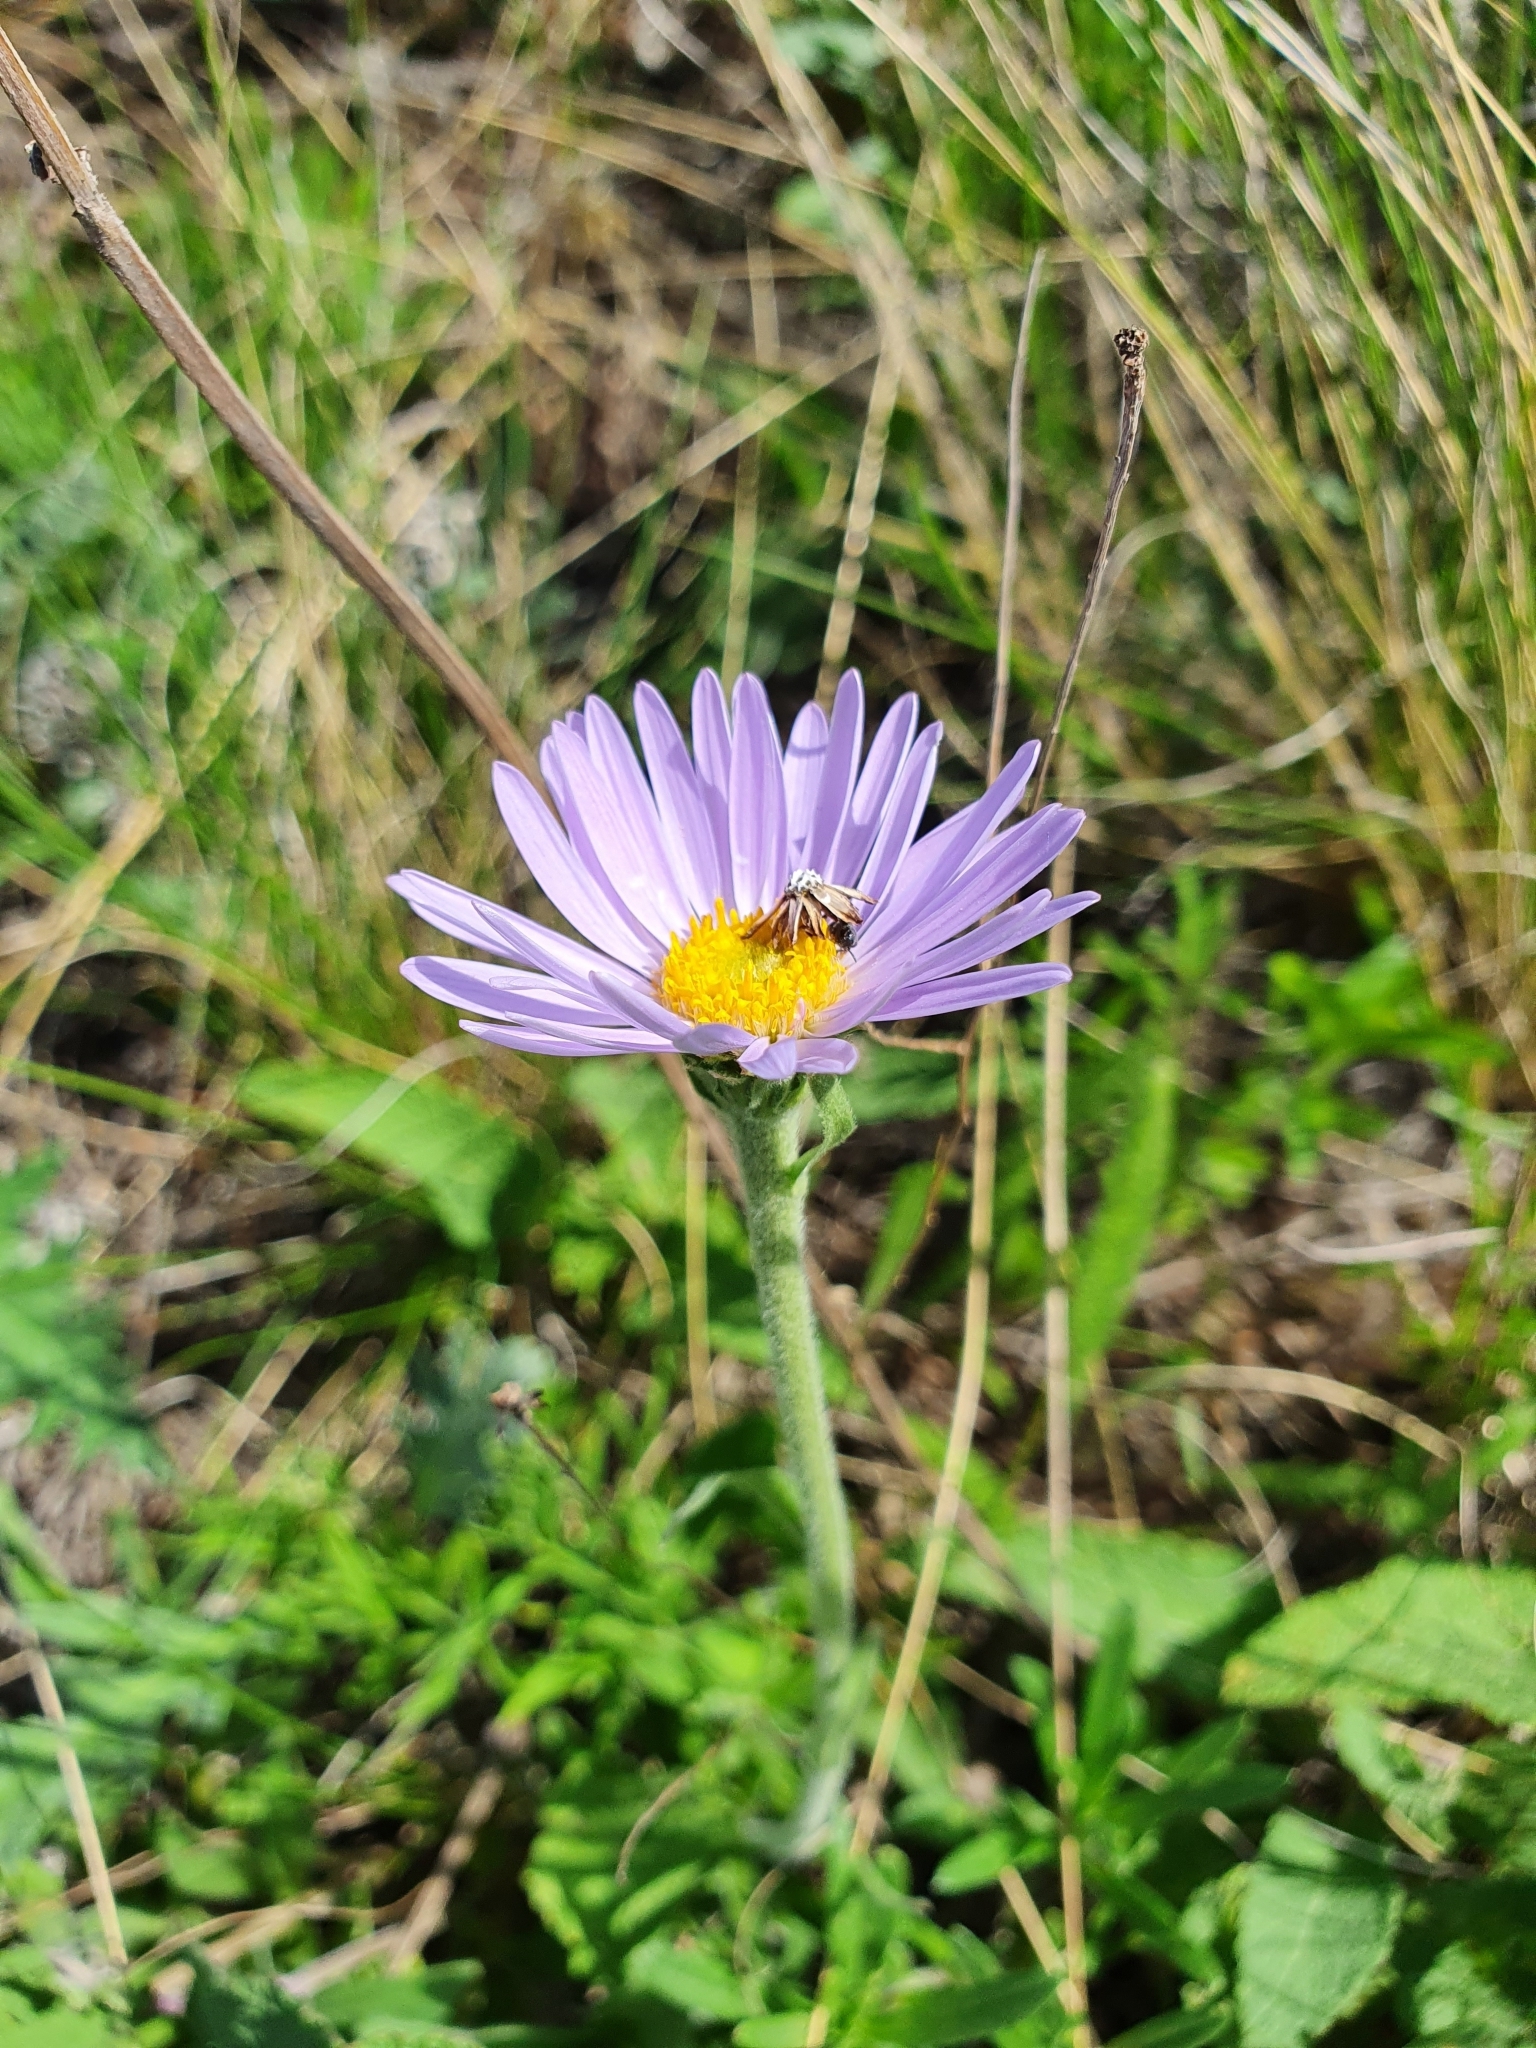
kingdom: Plantae
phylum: Tracheophyta
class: Magnoliopsida
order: Asterales
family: Asteraceae
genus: Aster
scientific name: Aster alpinus
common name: Alpine aster
